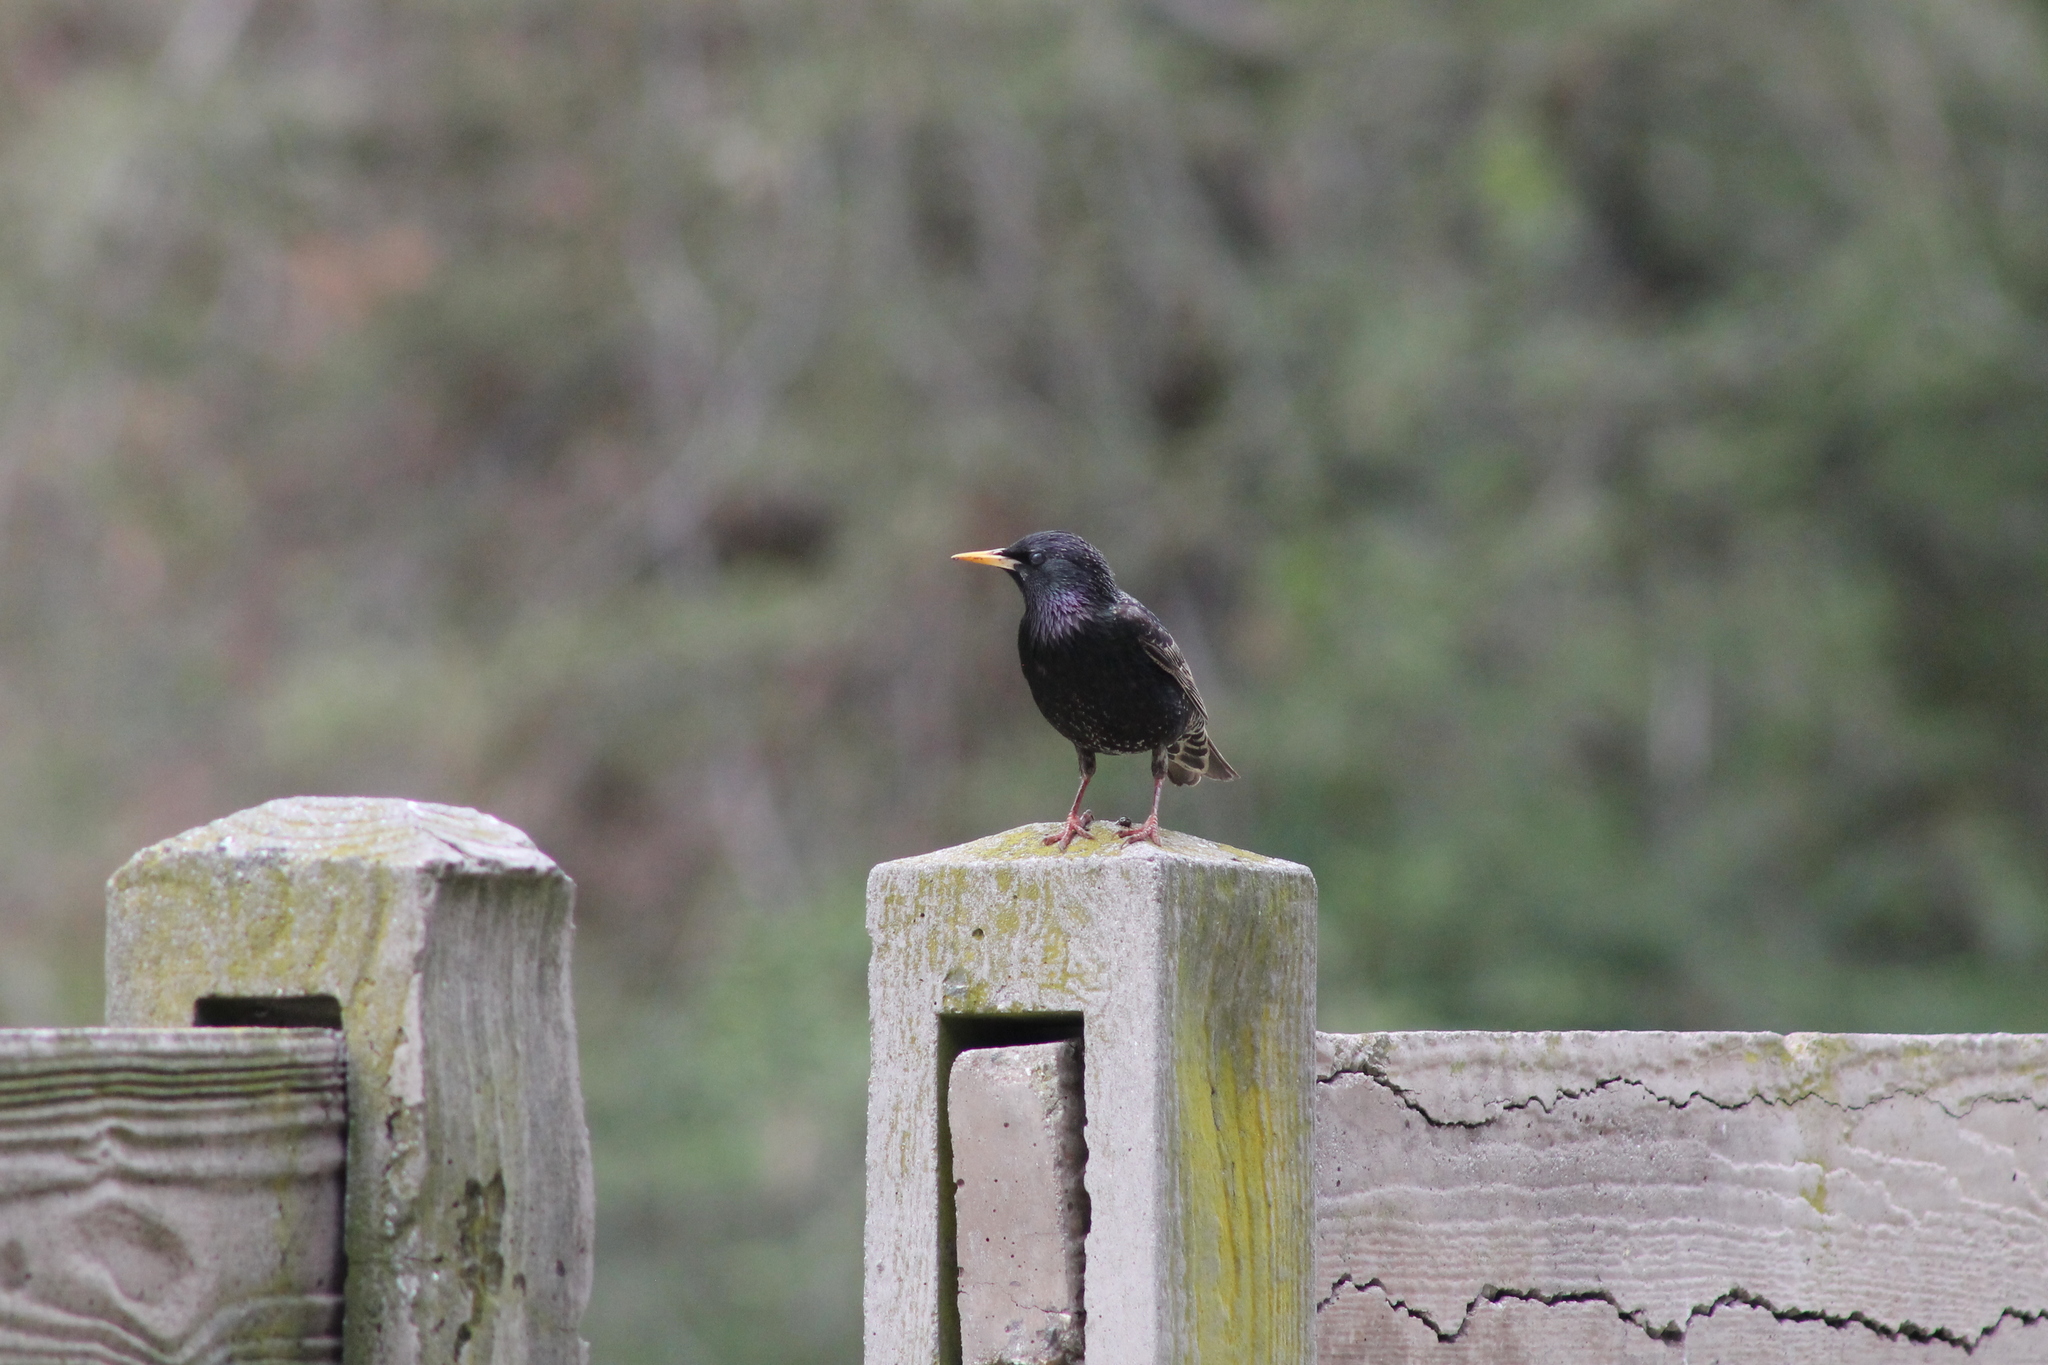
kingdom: Animalia
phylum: Chordata
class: Aves
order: Passeriformes
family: Sturnidae
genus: Sturnus
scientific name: Sturnus vulgaris
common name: Common starling
